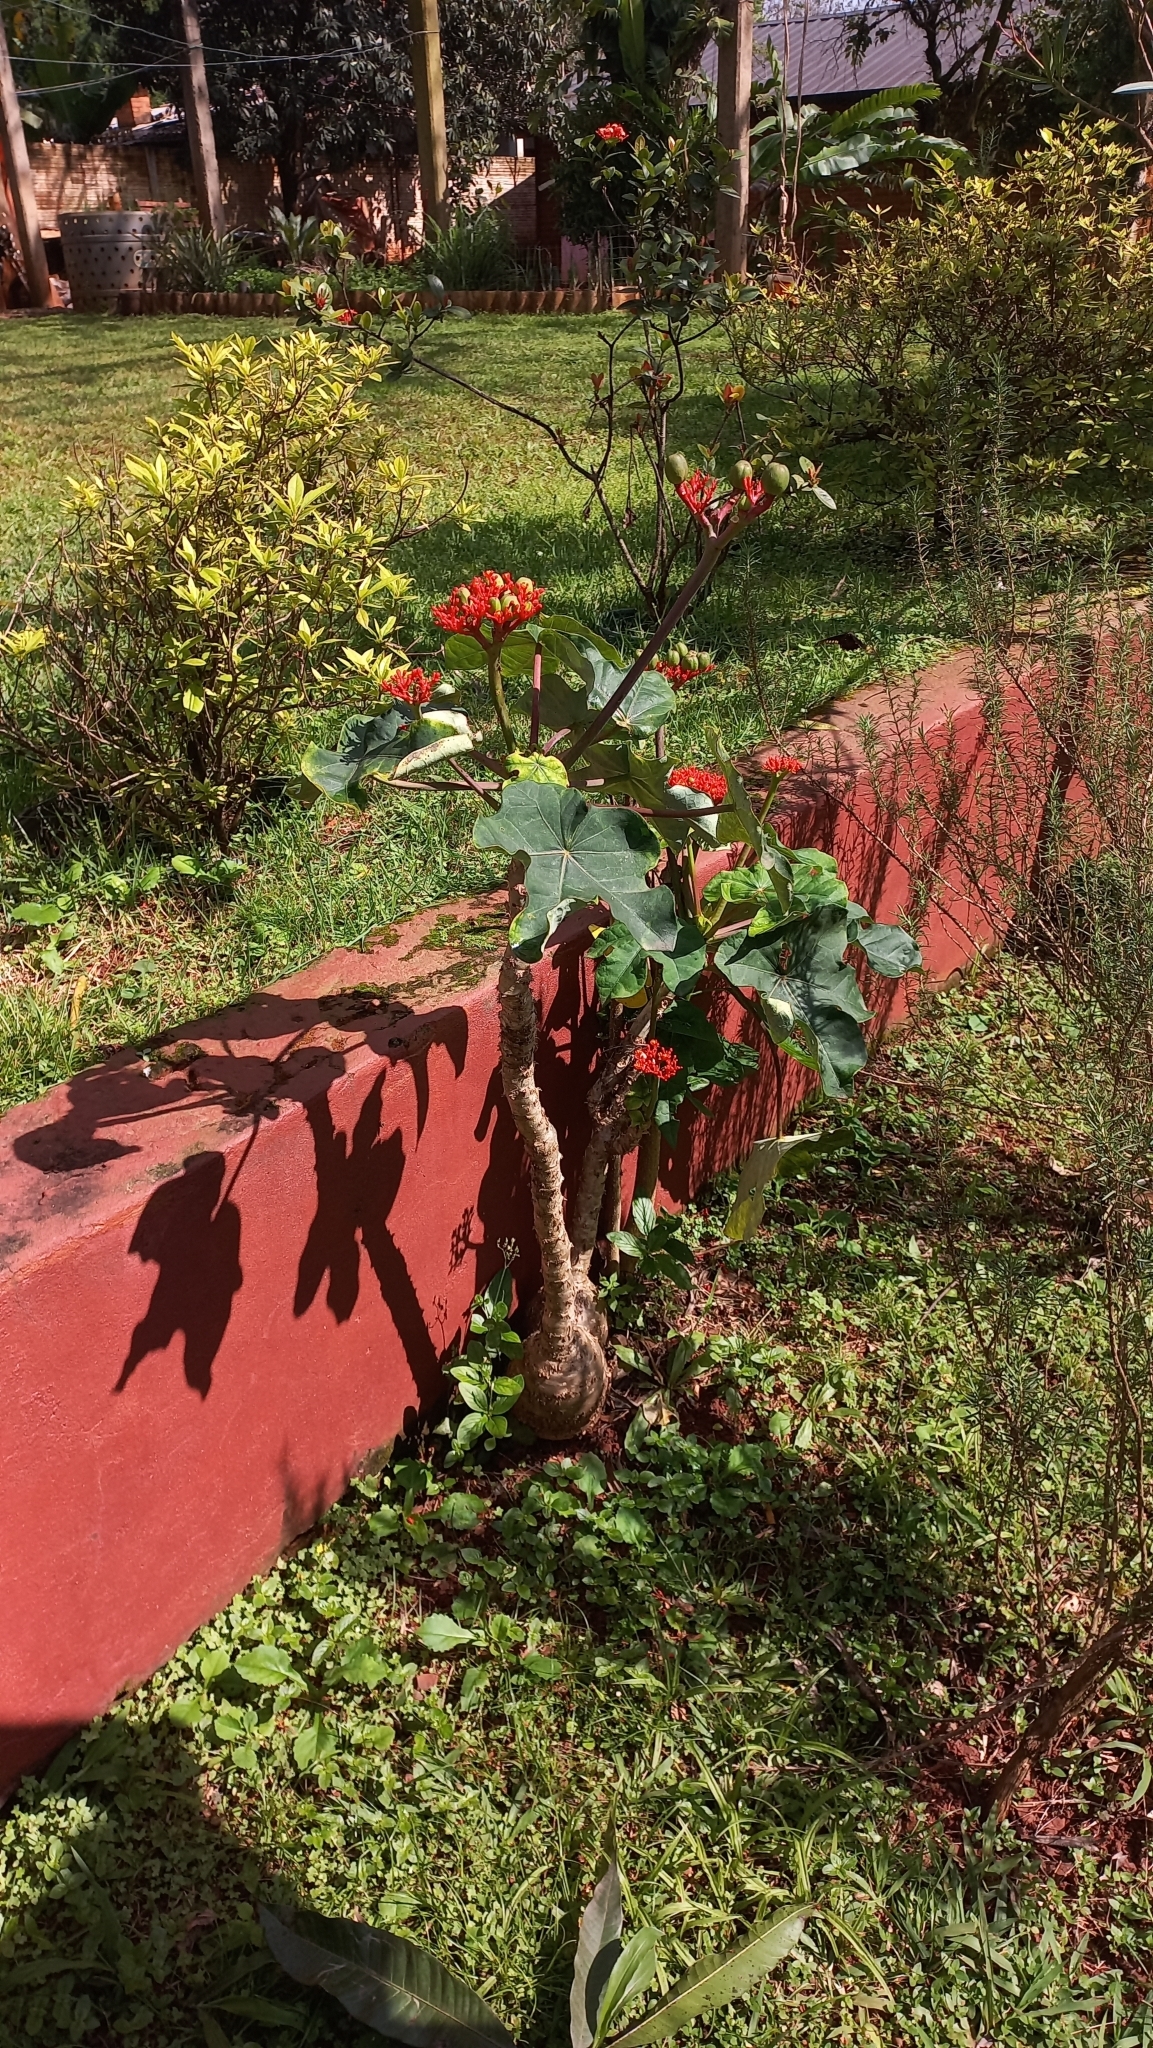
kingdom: Plantae
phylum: Tracheophyta
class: Magnoliopsida
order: Malpighiales
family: Euphorbiaceae
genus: Jatropha
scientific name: Jatropha podagrica
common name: Gout stalk
